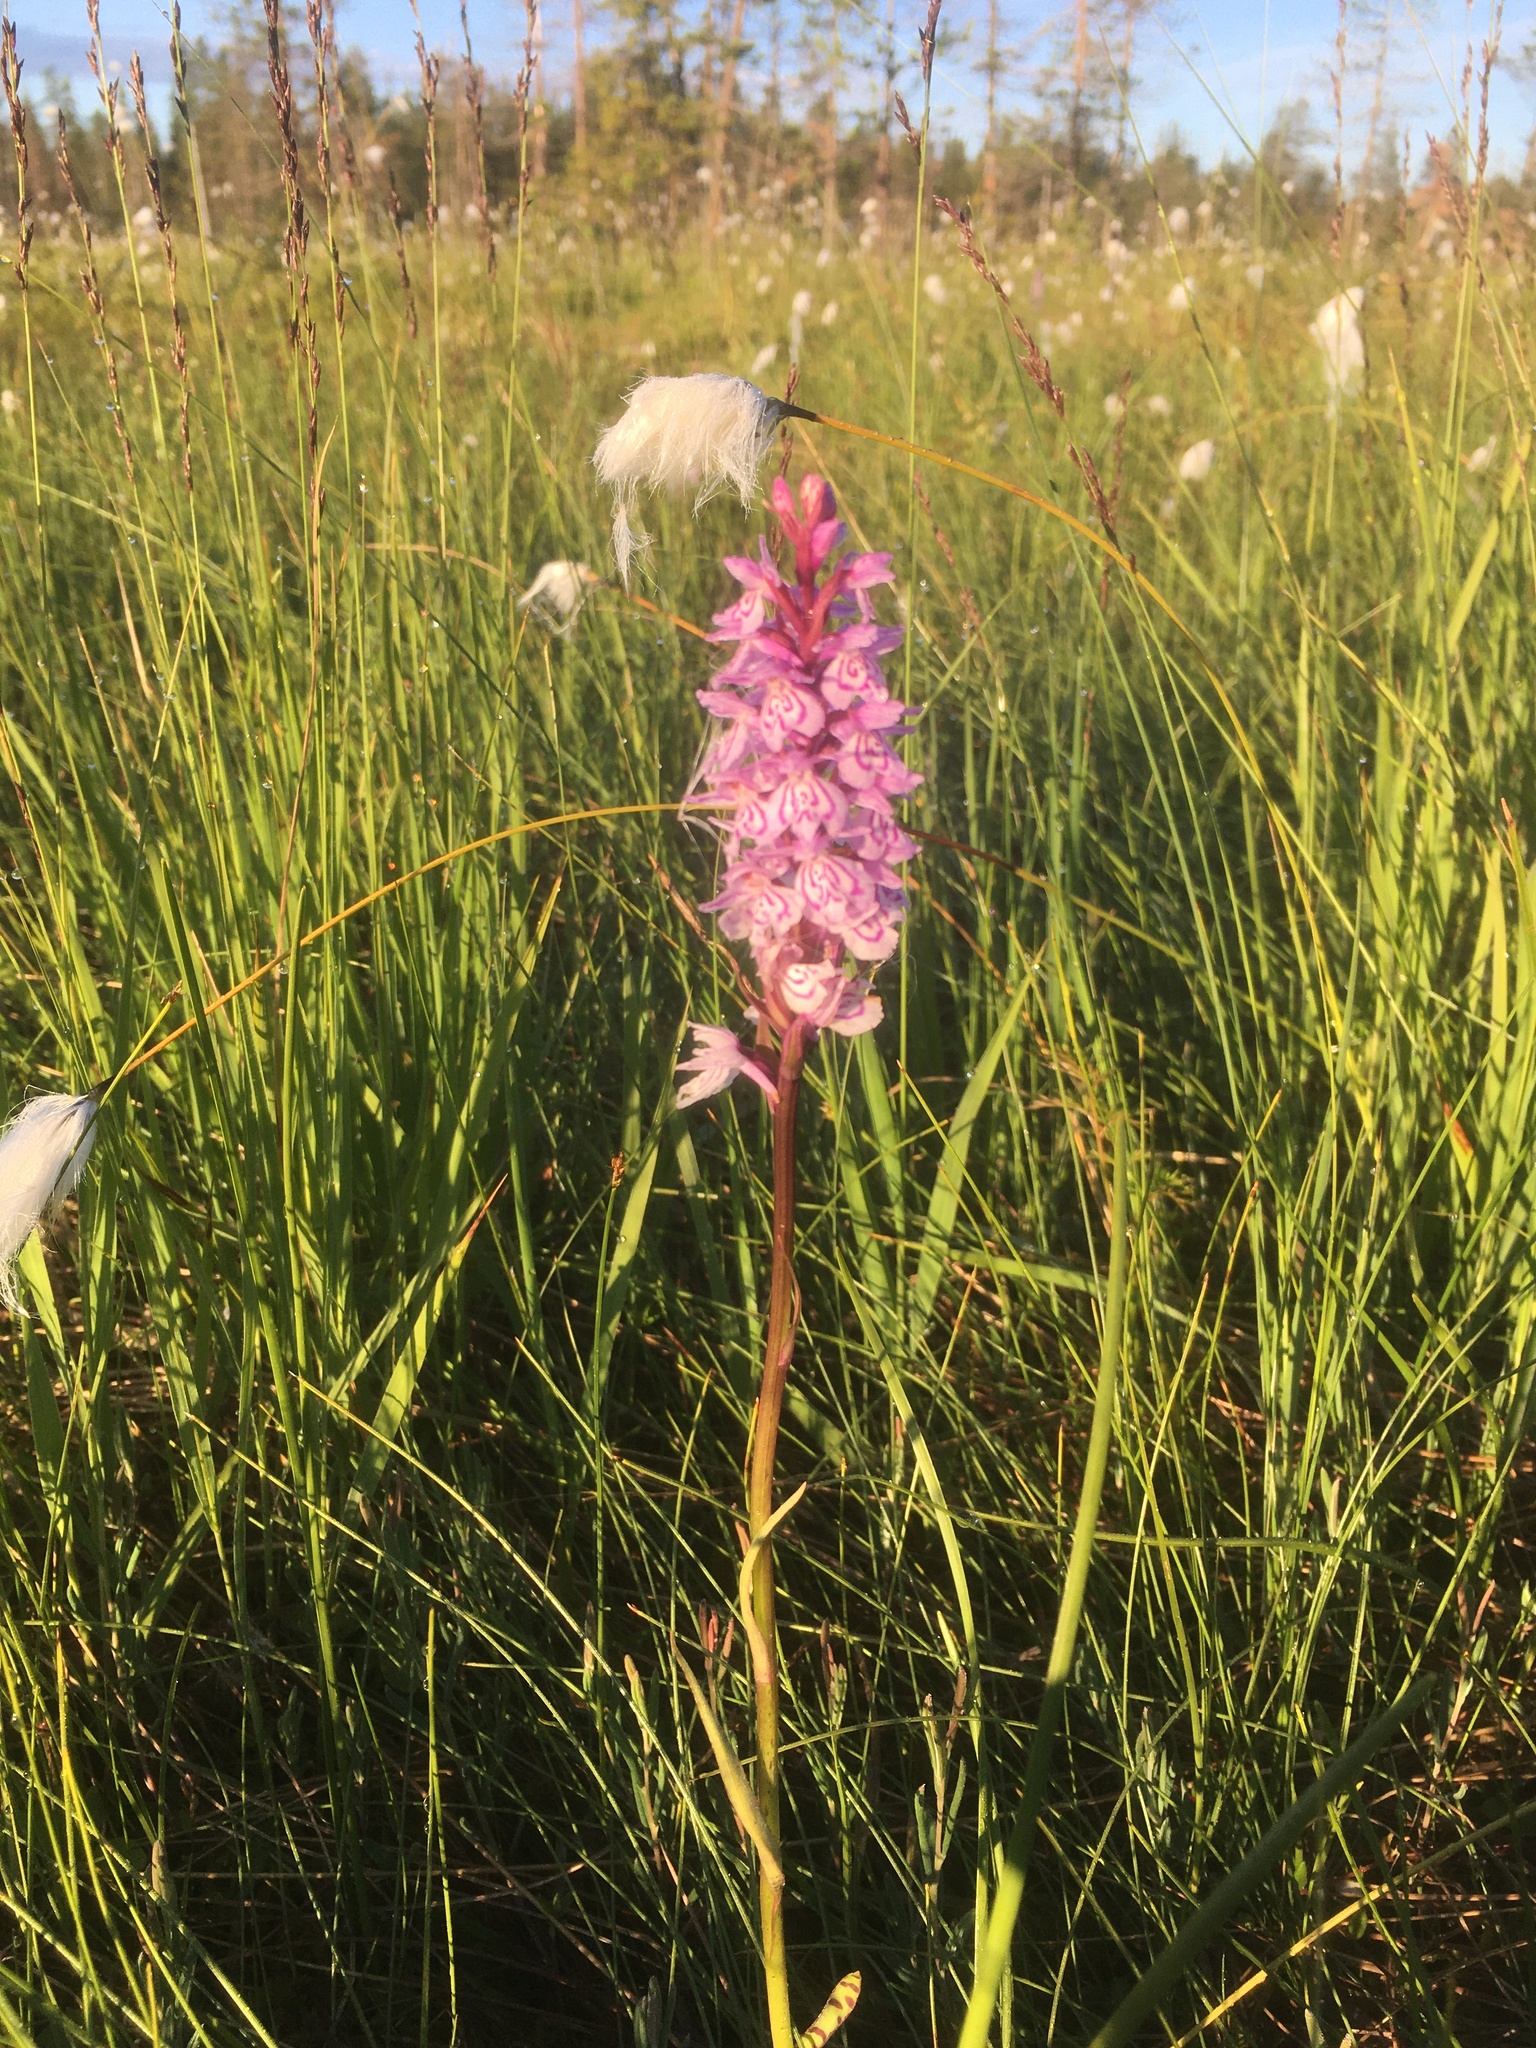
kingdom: Plantae
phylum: Tracheophyta
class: Liliopsida
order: Asparagales
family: Orchidaceae
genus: Dactylorhiza
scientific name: Dactylorhiza maculata
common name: Heath spotted-orchid
